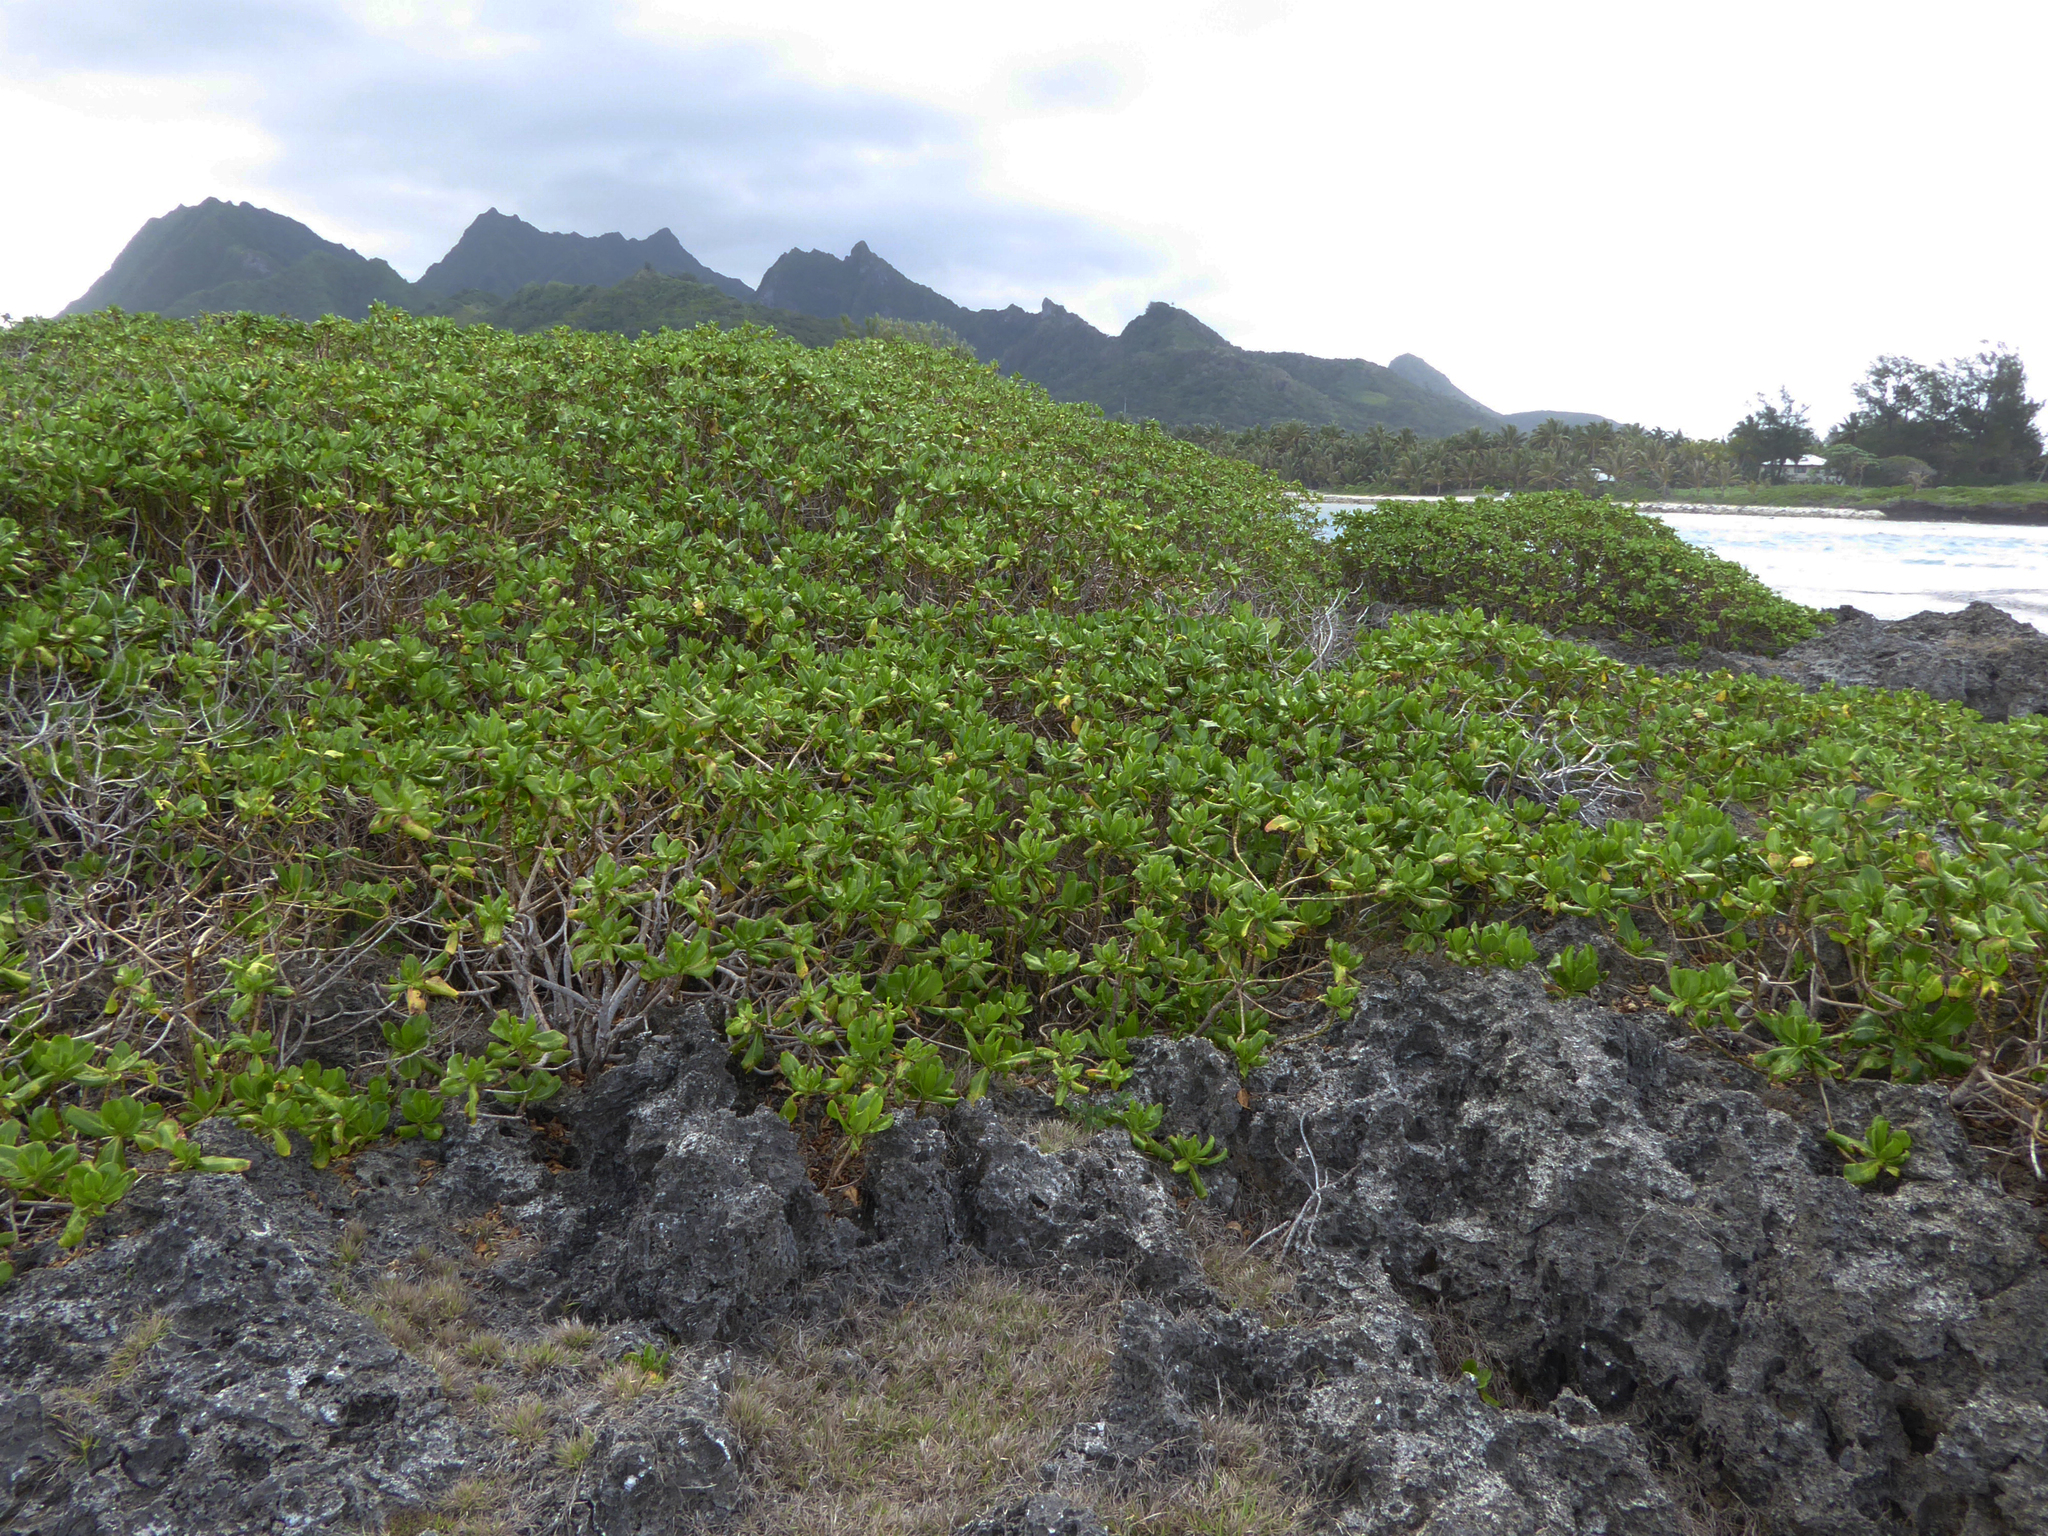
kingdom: Plantae
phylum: Tracheophyta
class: Magnoliopsida
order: Asterales
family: Goodeniaceae
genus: Scaevola
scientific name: Scaevola taccada
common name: Sea lettucetree
